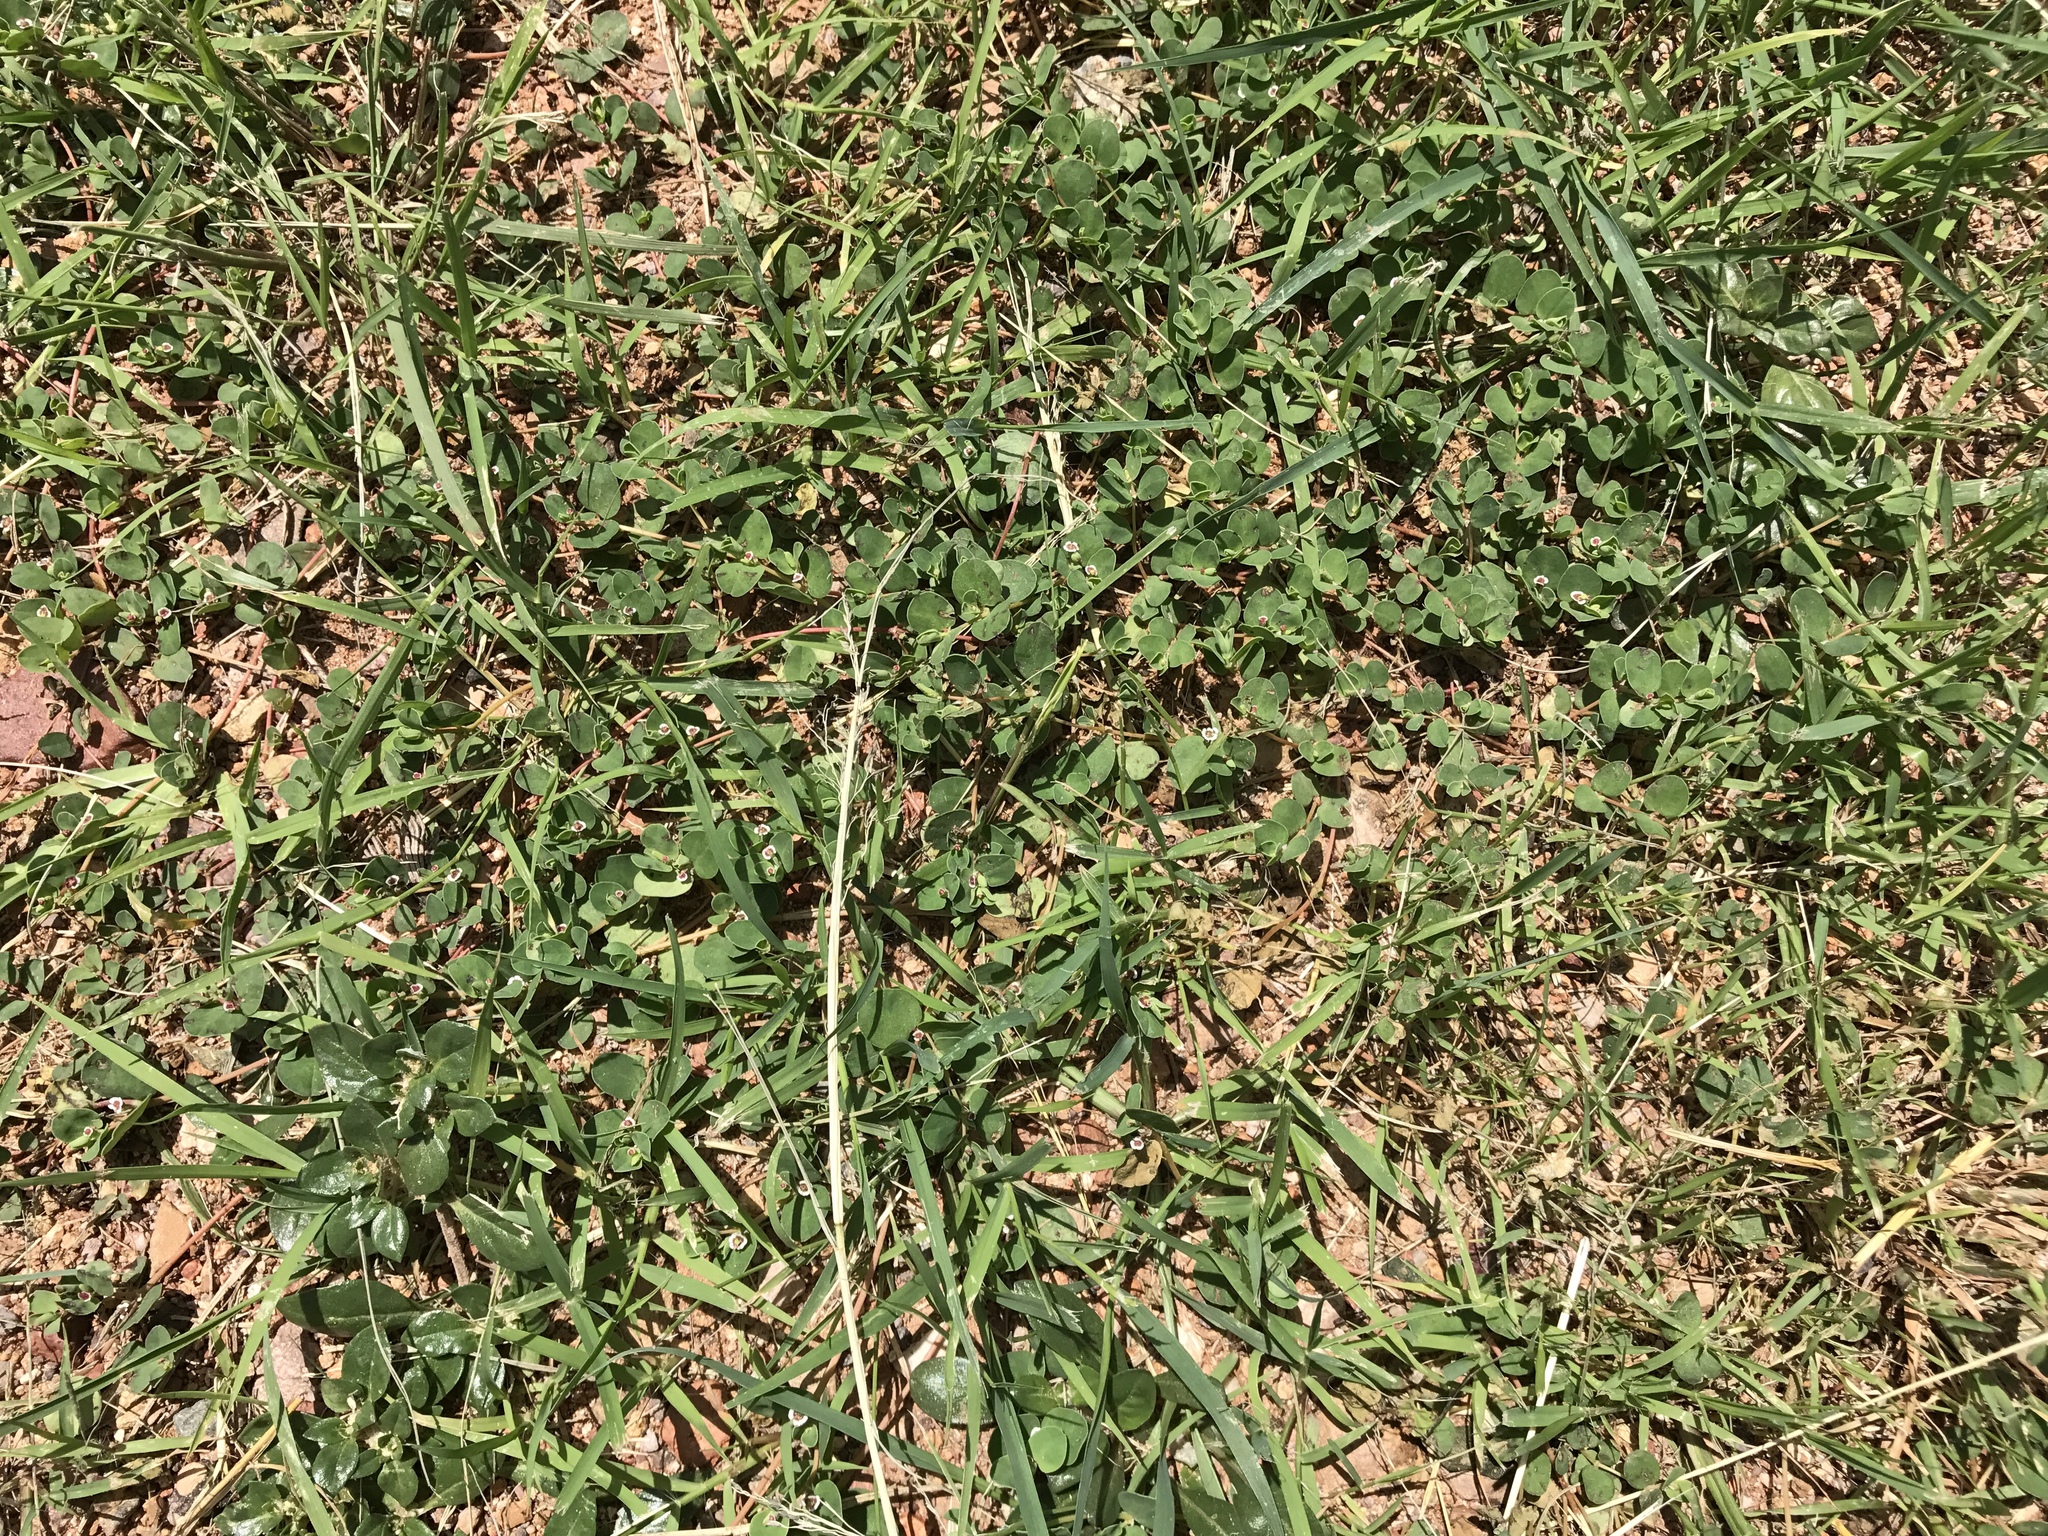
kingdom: Plantae
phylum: Tracheophyta
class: Magnoliopsida
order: Malpighiales
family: Euphorbiaceae
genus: Euphorbia
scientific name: Euphorbia albomarginata
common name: Whitemargin sandmat
